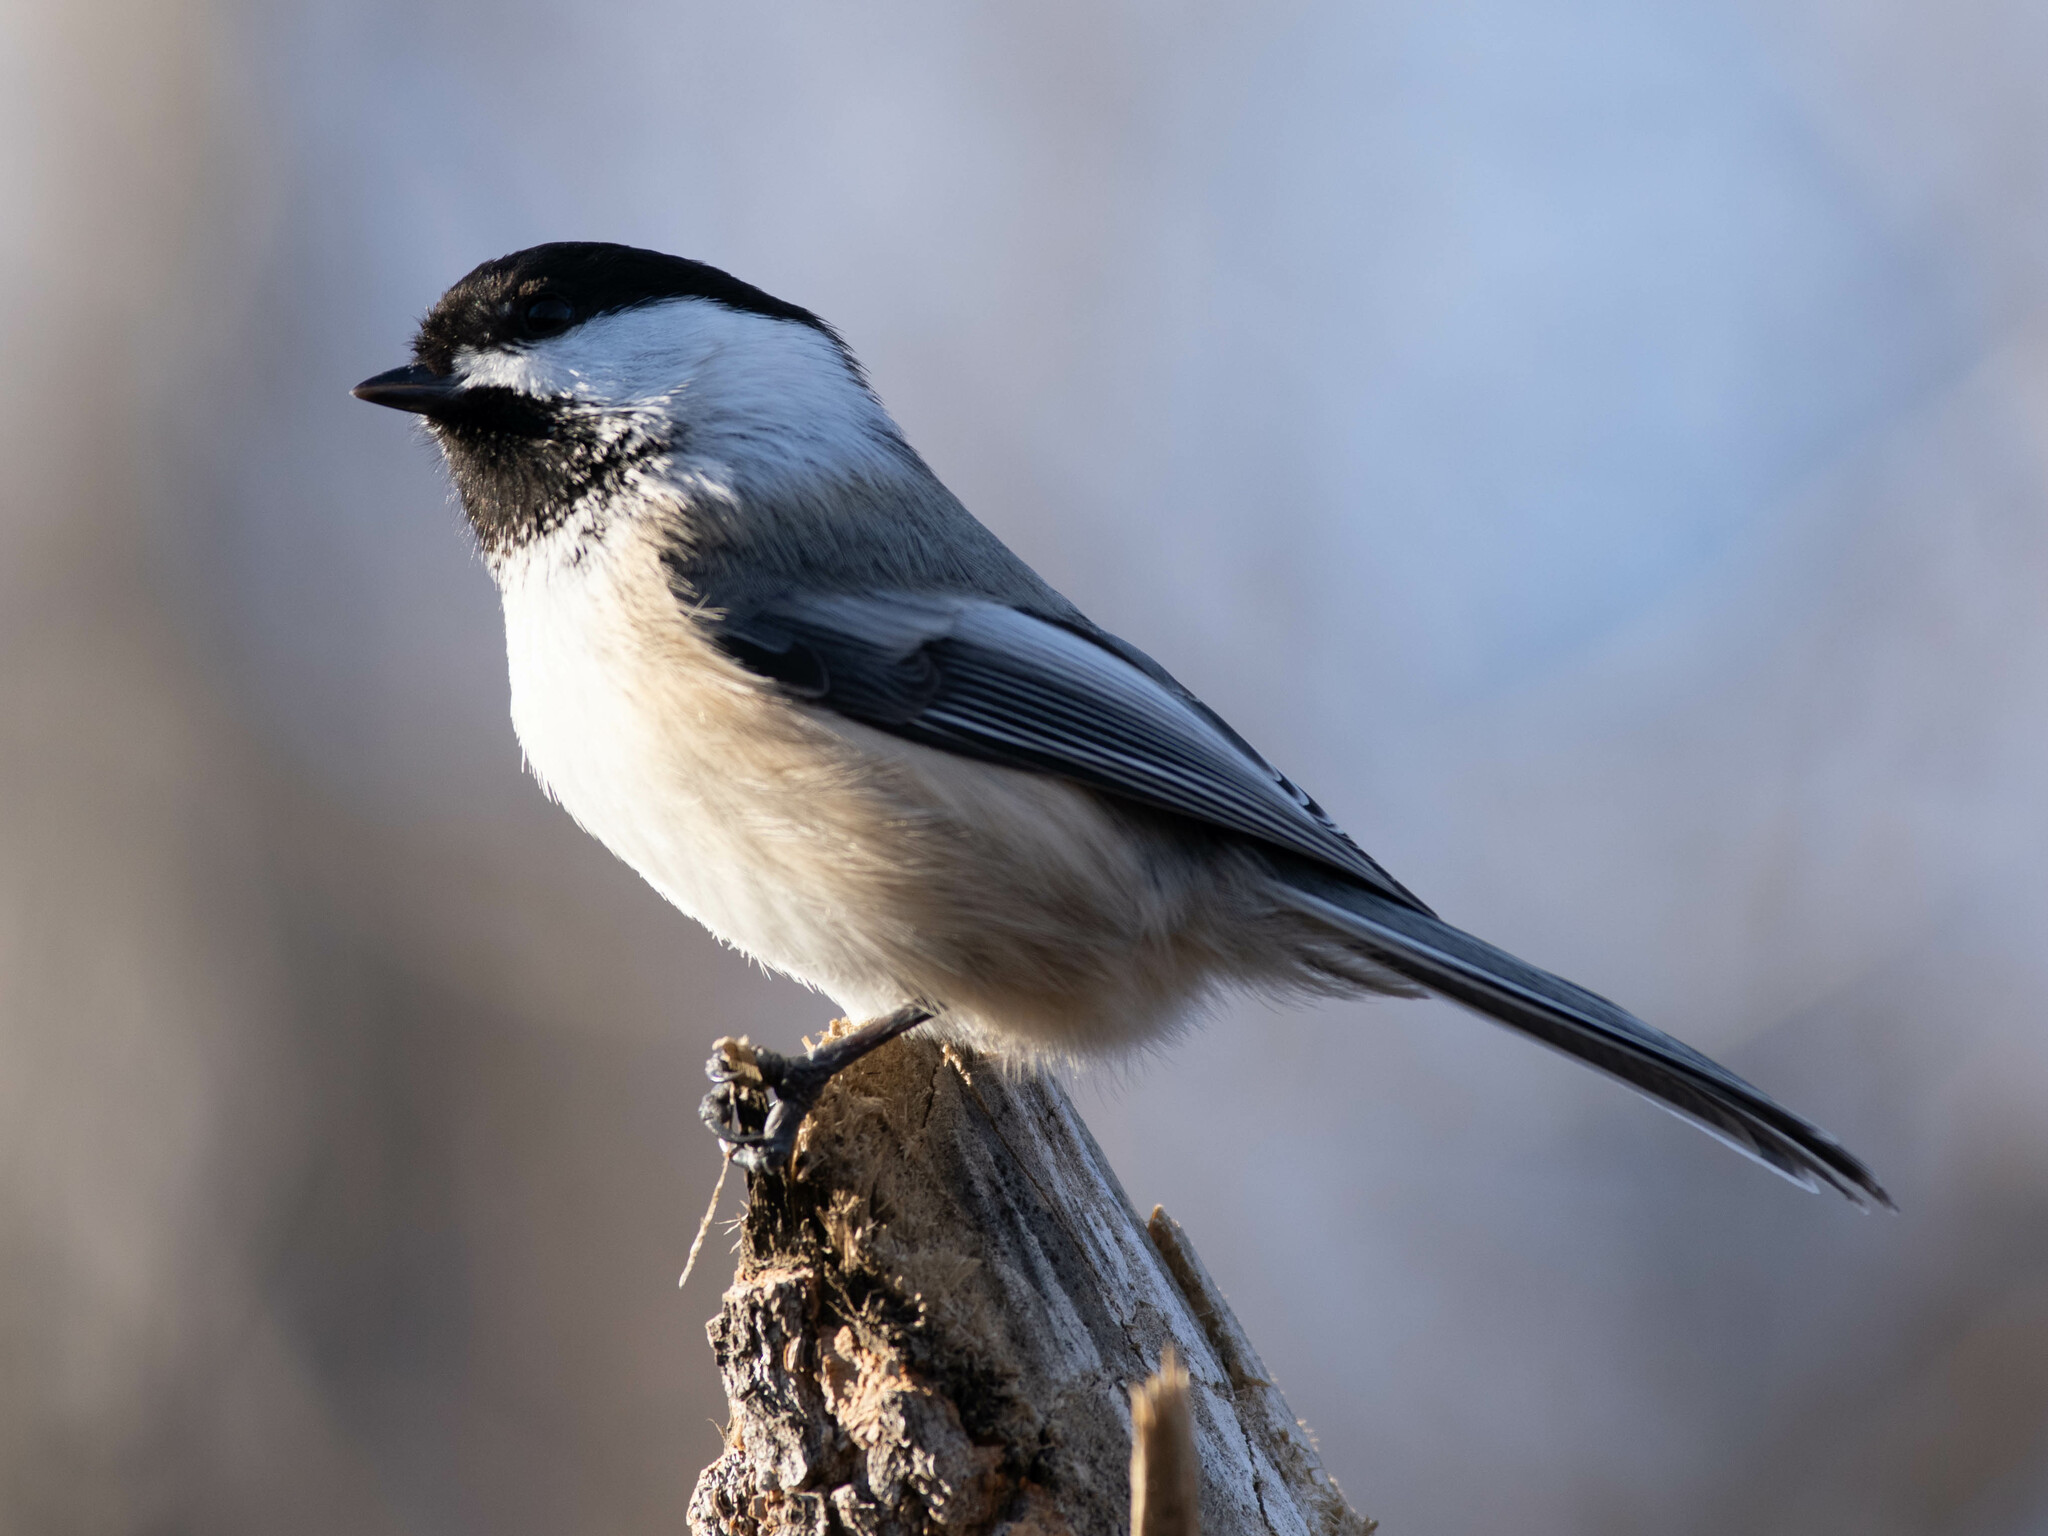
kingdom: Animalia
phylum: Chordata
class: Aves
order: Passeriformes
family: Paridae
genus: Poecile
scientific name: Poecile atricapillus
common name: Black-capped chickadee
